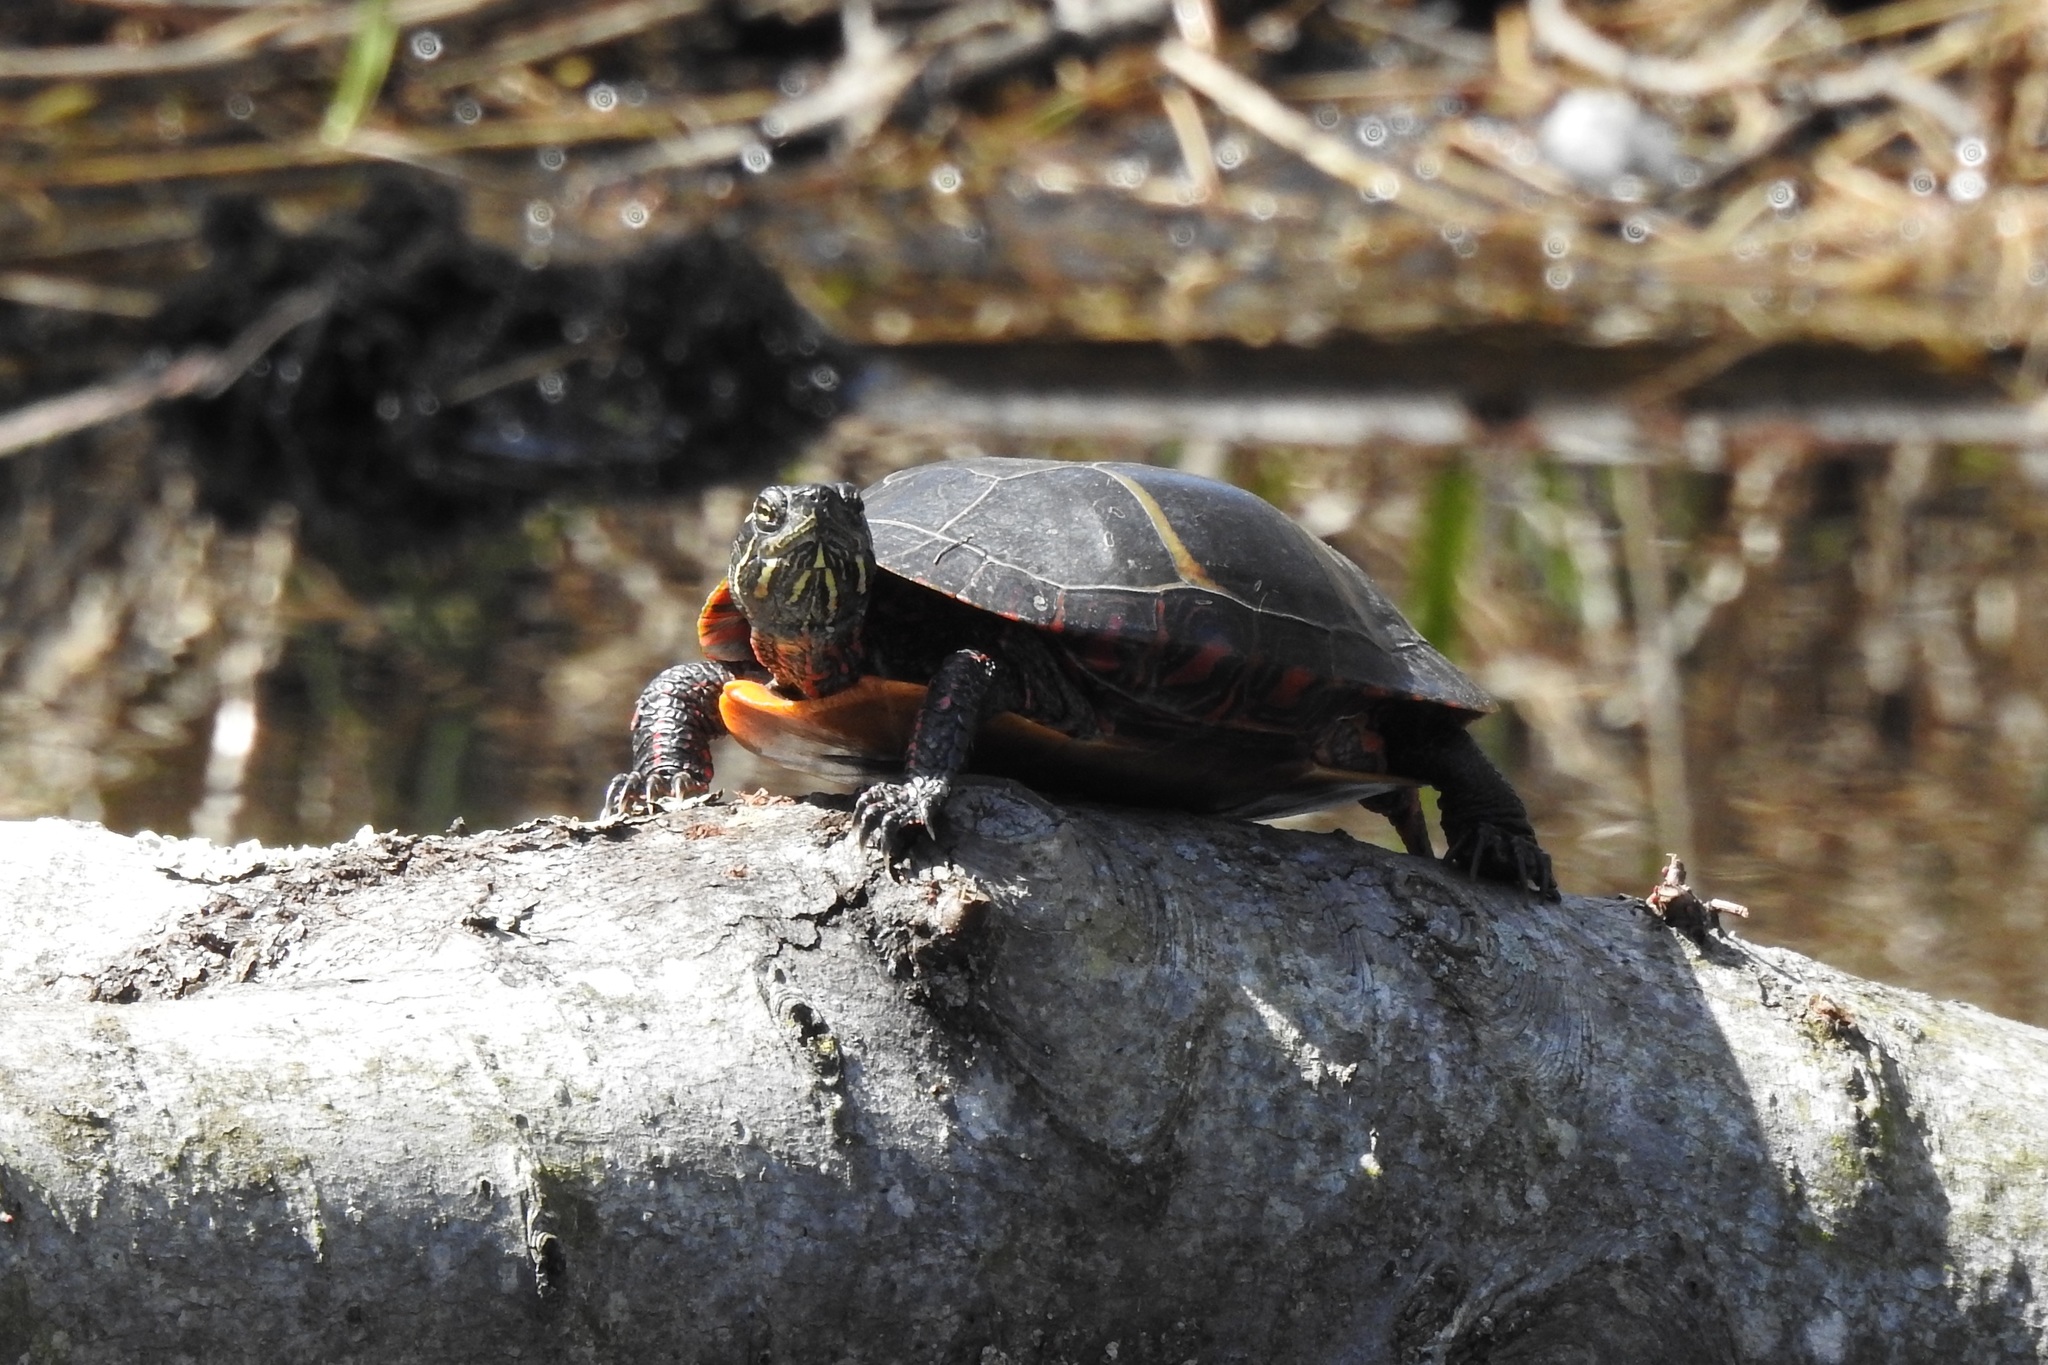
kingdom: Animalia
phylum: Chordata
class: Testudines
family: Emydidae
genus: Chrysemys
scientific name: Chrysemys picta
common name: Painted turtle
